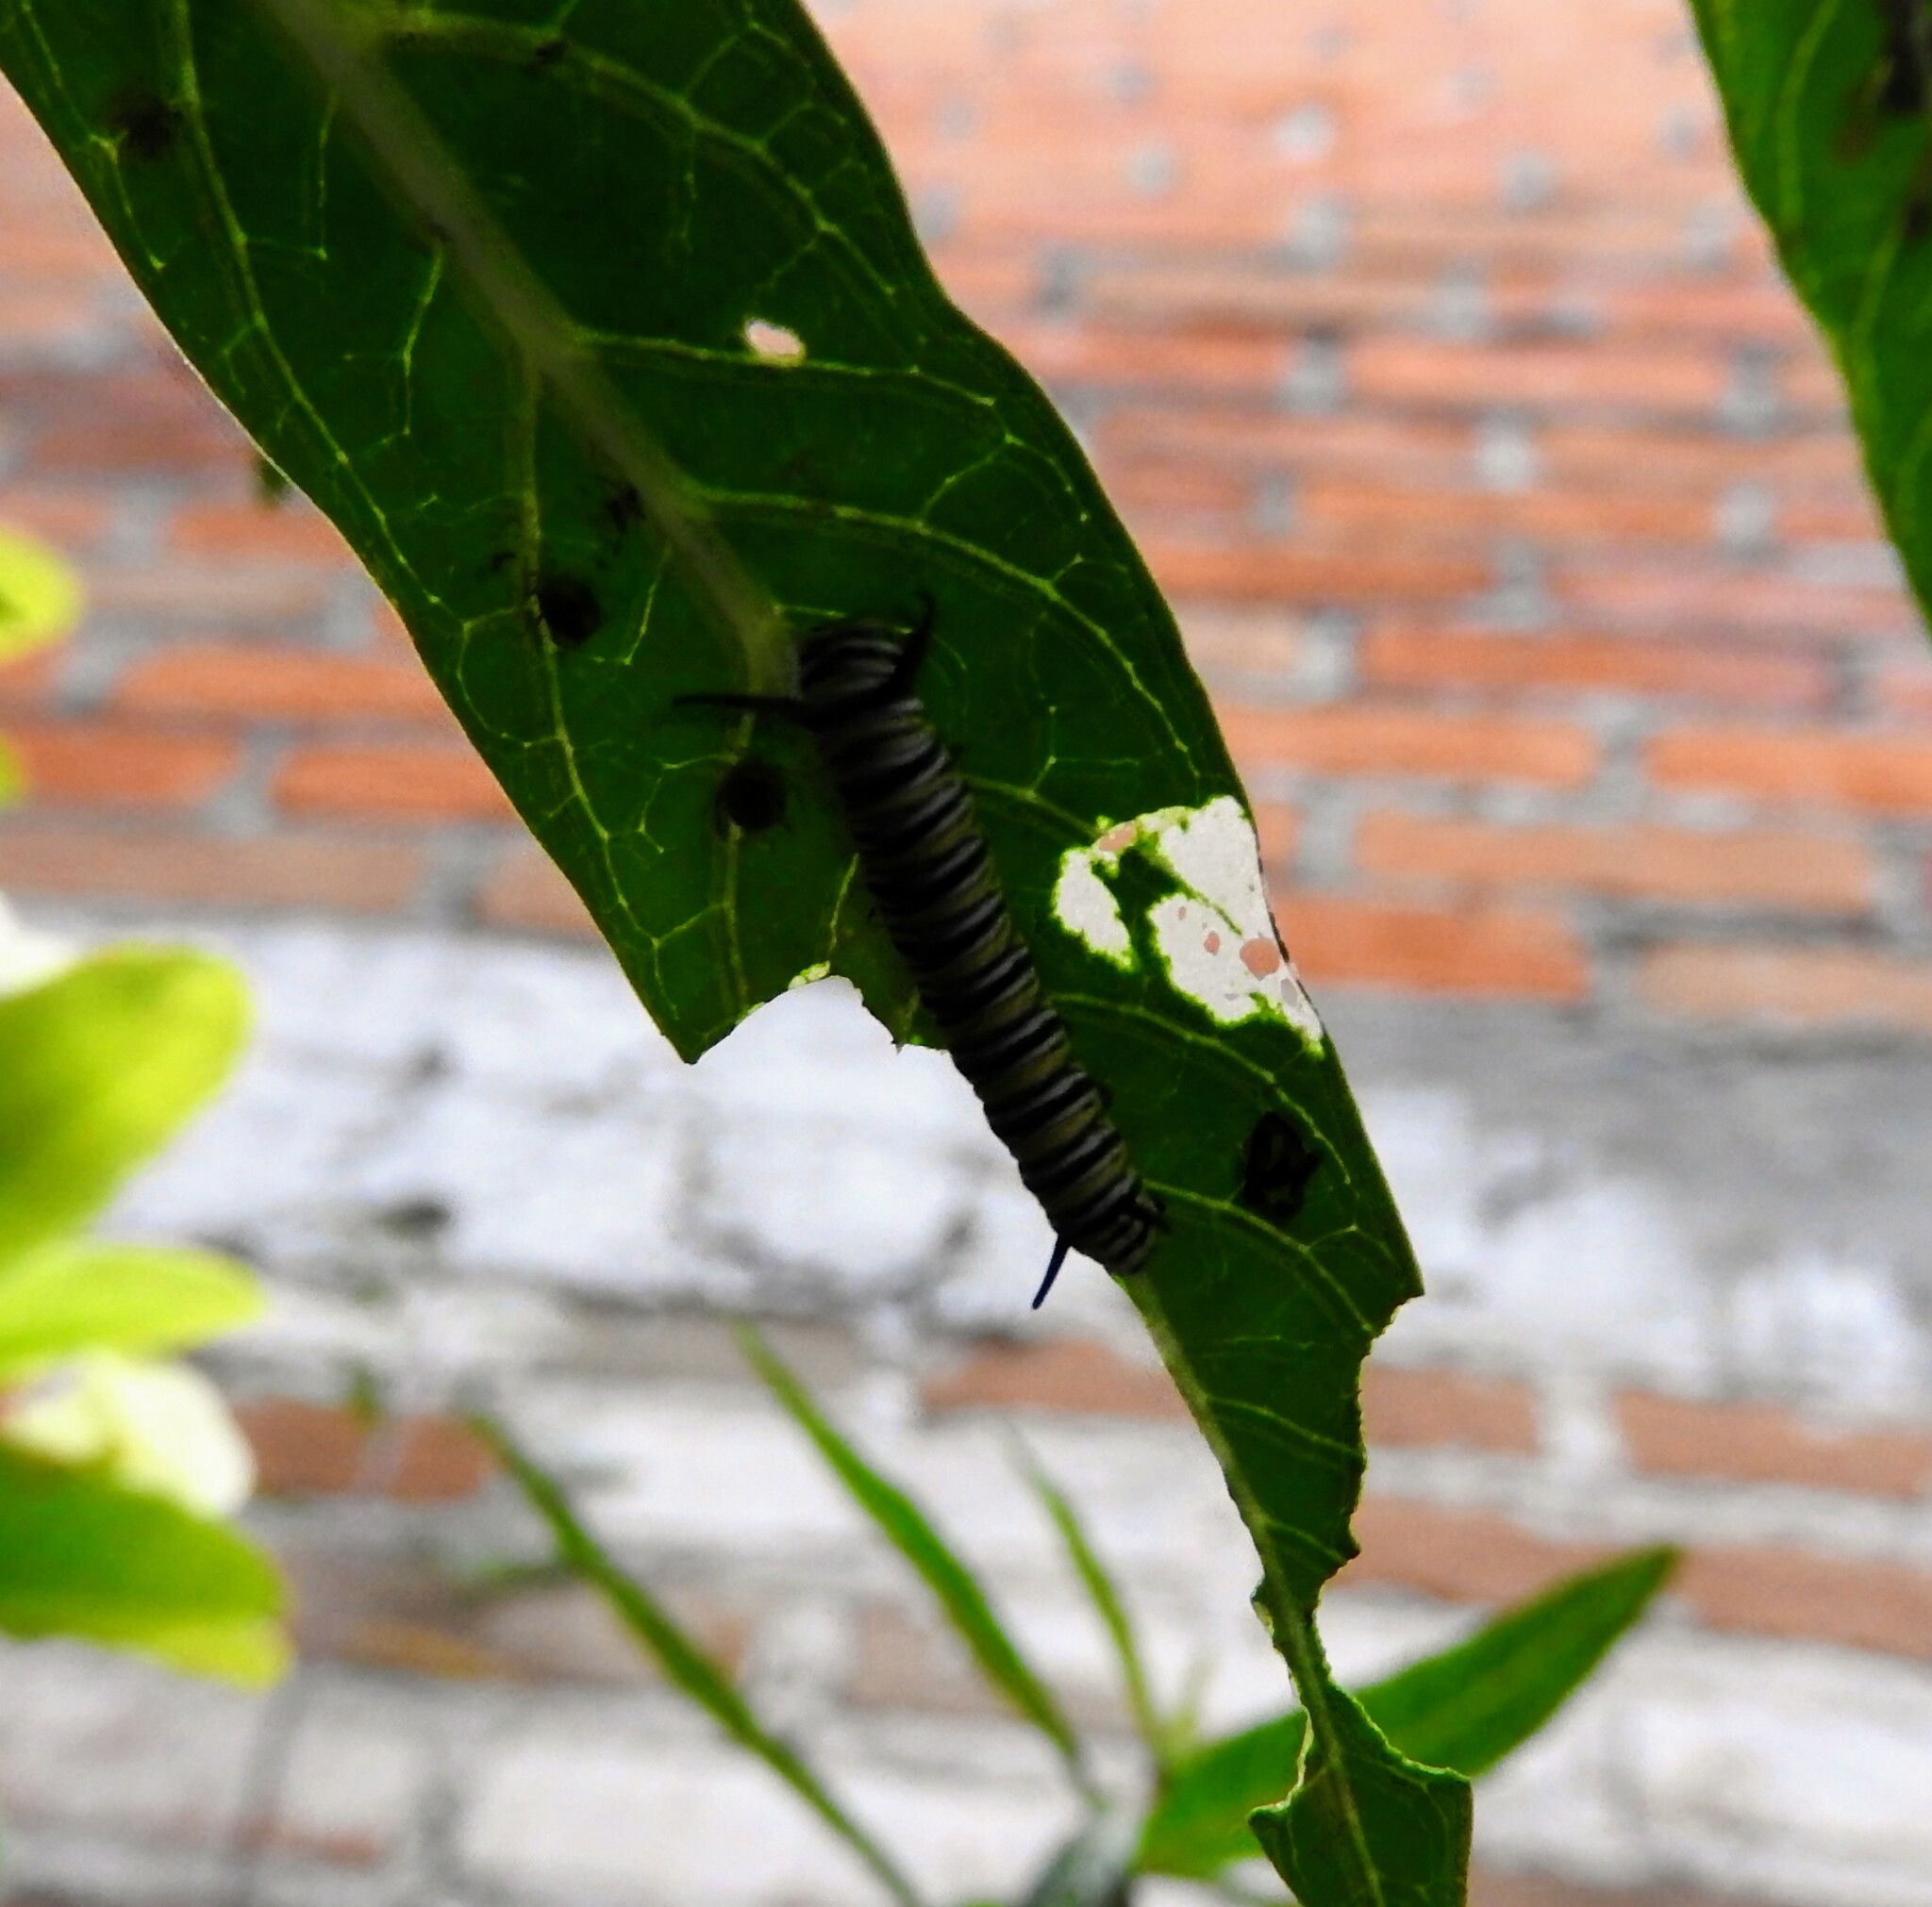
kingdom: Animalia
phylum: Arthropoda
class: Insecta
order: Lepidoptera
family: Nymphalidae
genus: Danaus
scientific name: Danaus plexippus
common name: Monarch
